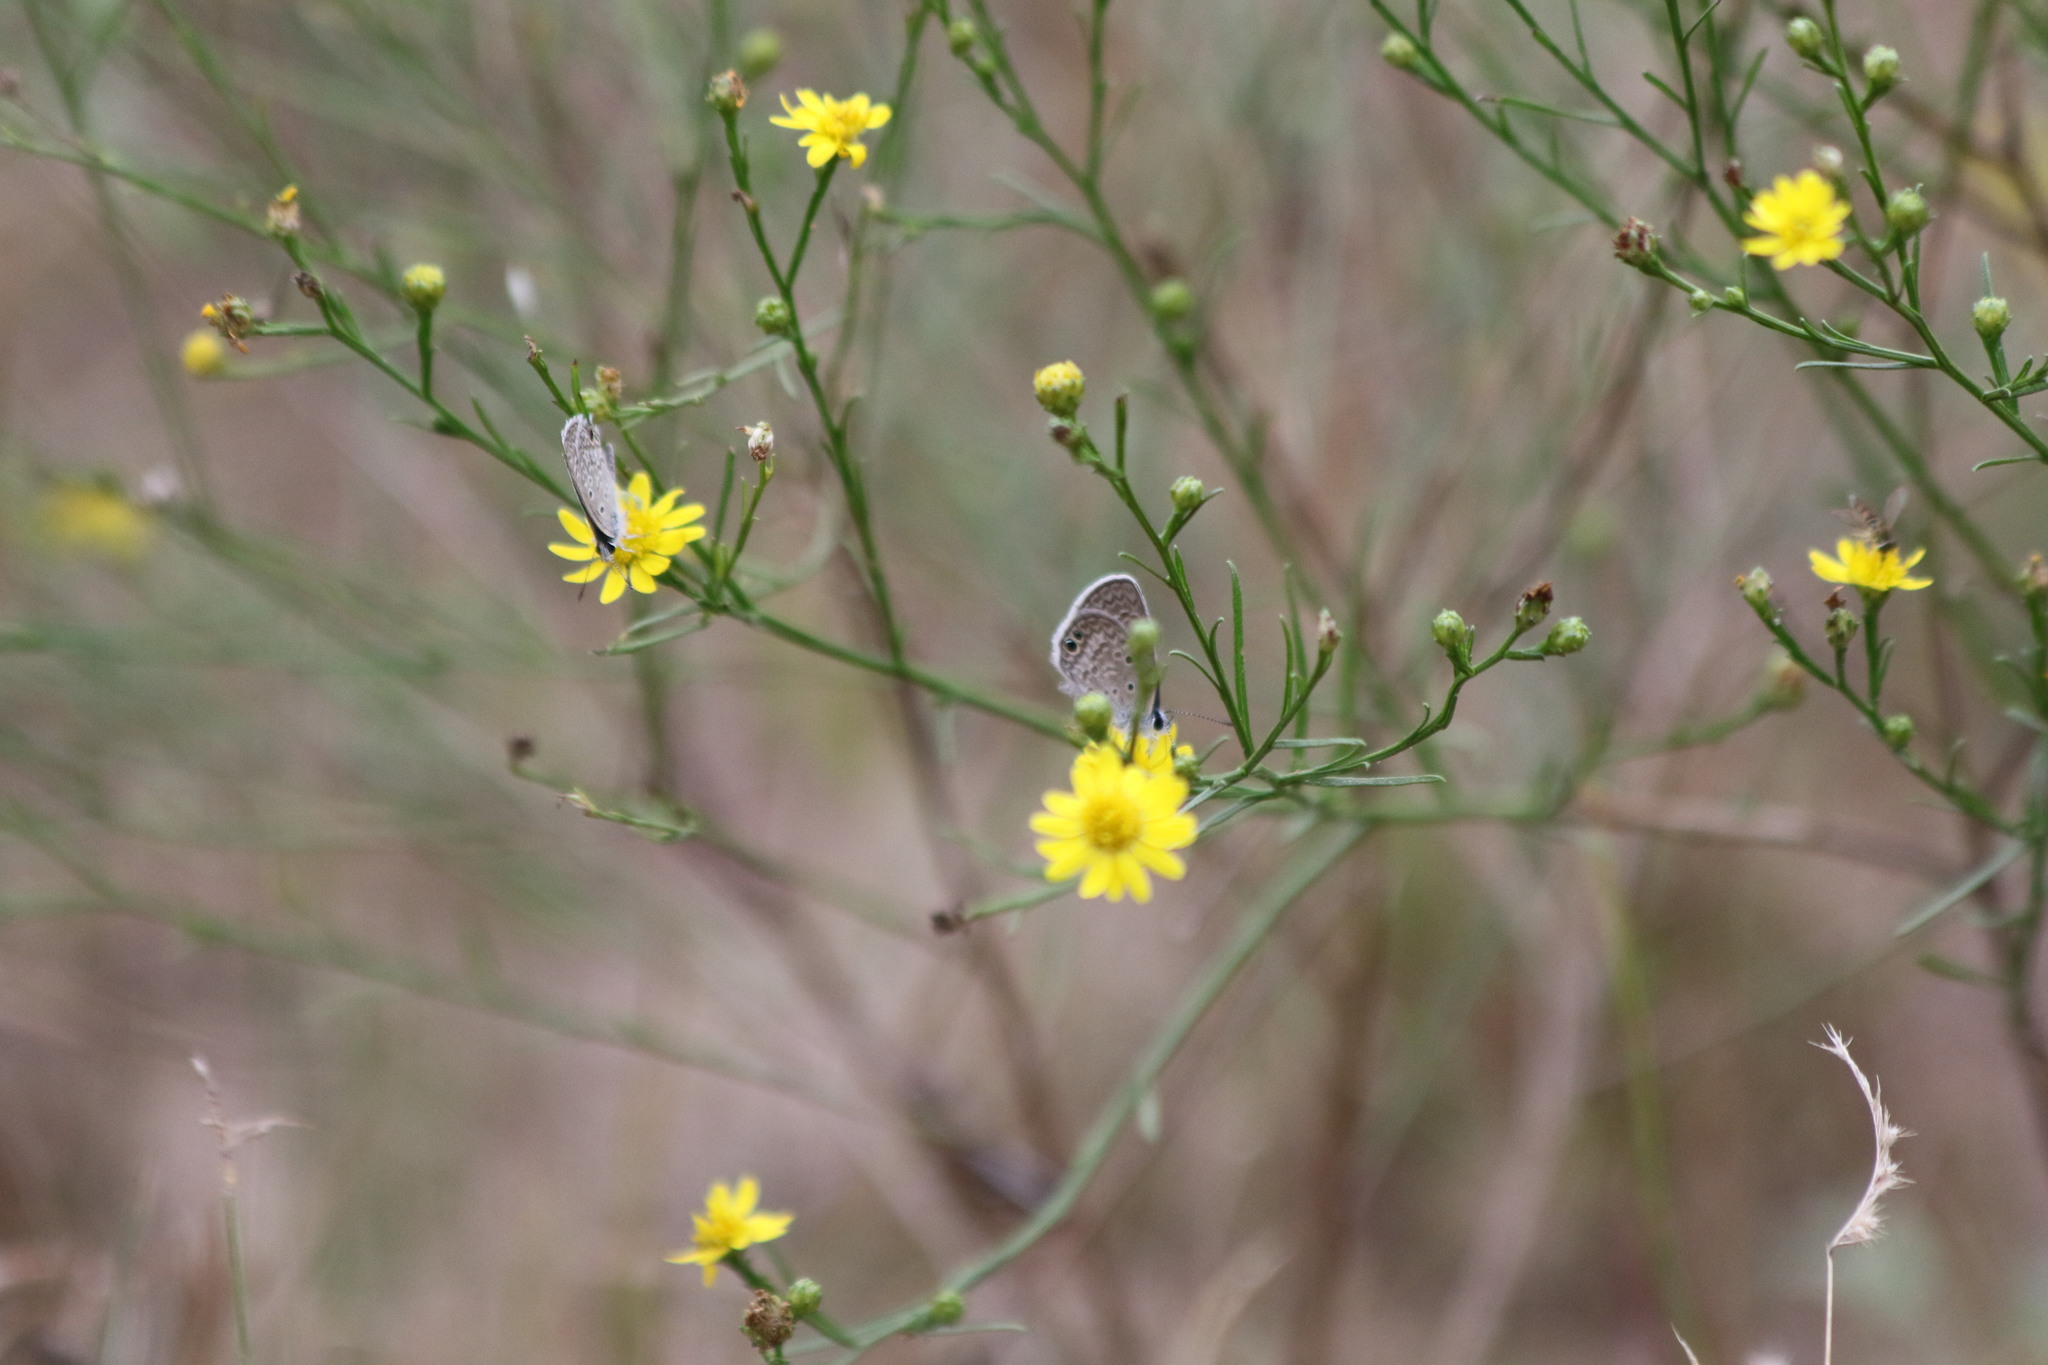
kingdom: Animalia
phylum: Arthropoda
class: Insecta
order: Lepidoptera
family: Lycaenidae
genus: Hemiargus
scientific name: Hemiargus ceraunus
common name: Ceraunus blue
